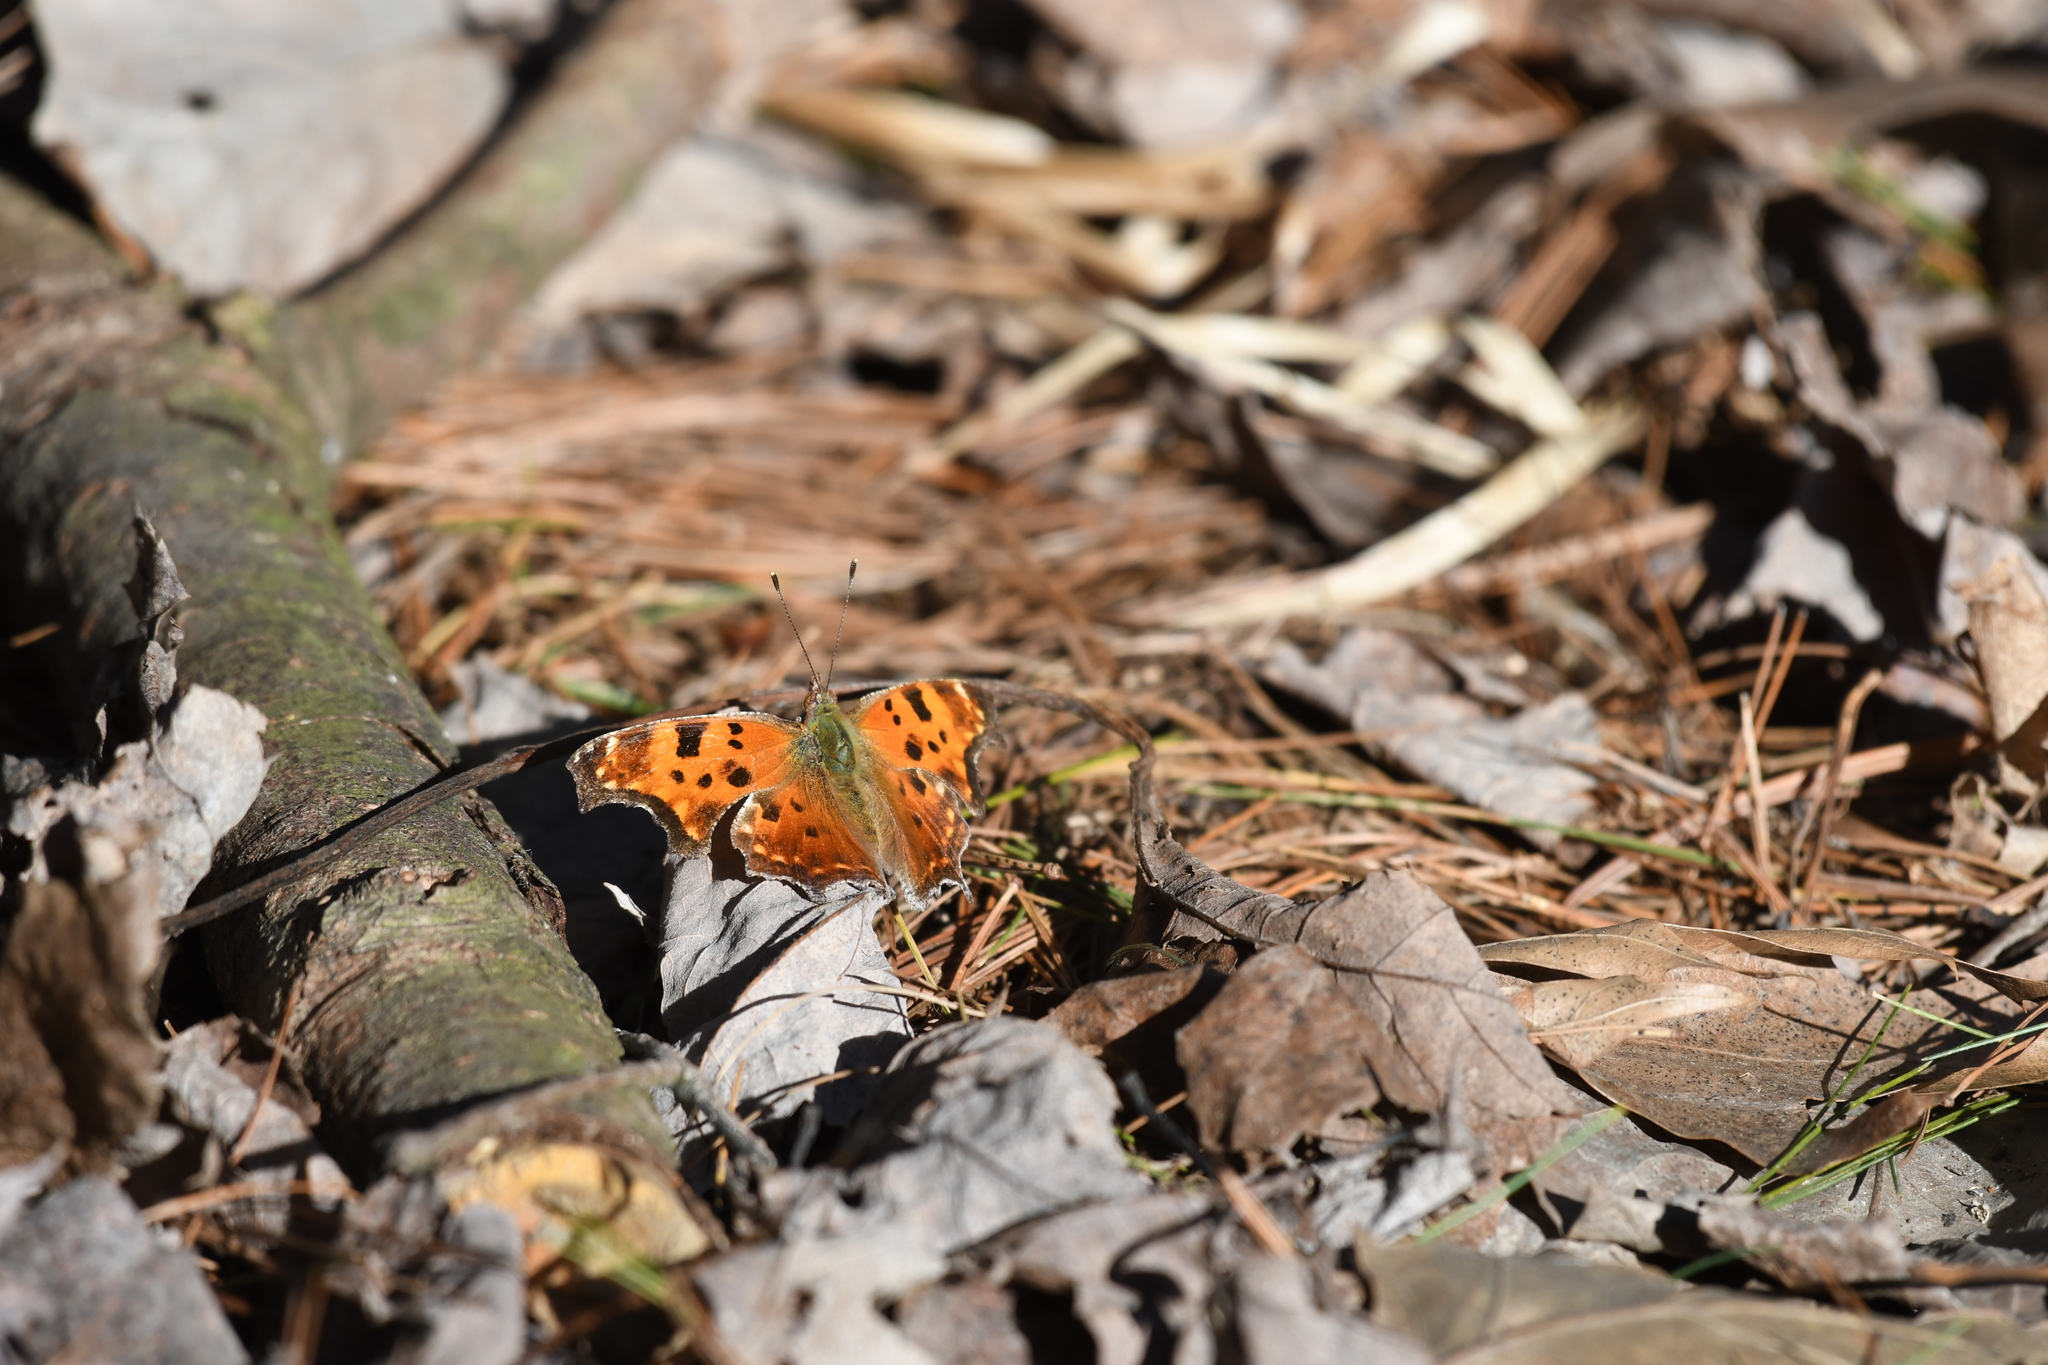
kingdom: Animalia
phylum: Arthropoda
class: Insecta
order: Lepidoptera
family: Nymphalidae
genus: Polygonia
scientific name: Polygonia comma
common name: Eastern comma
